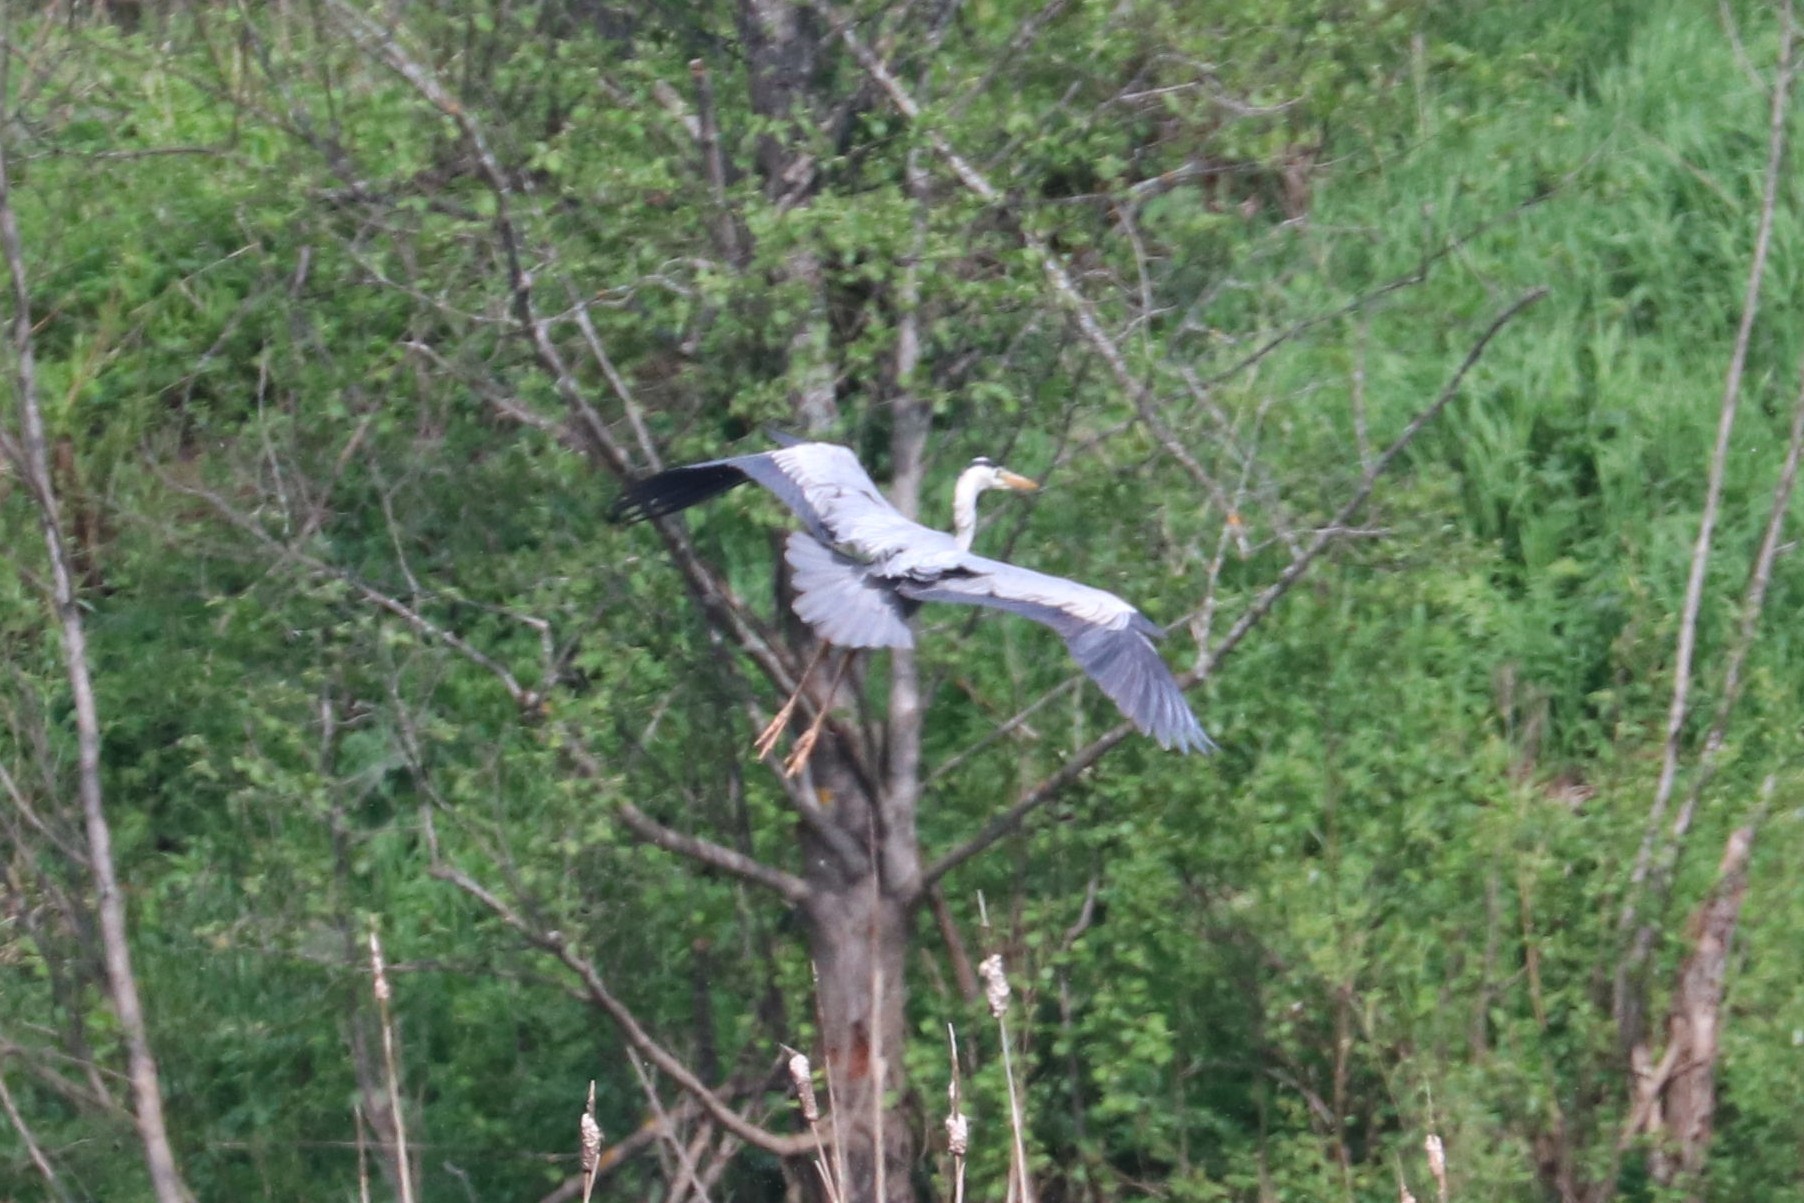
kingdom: Animalia
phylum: Chordata
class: Aves
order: Pelecaniformes
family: Ardeidae
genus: Ardea
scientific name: Ardea cinerea
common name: Grey heron
